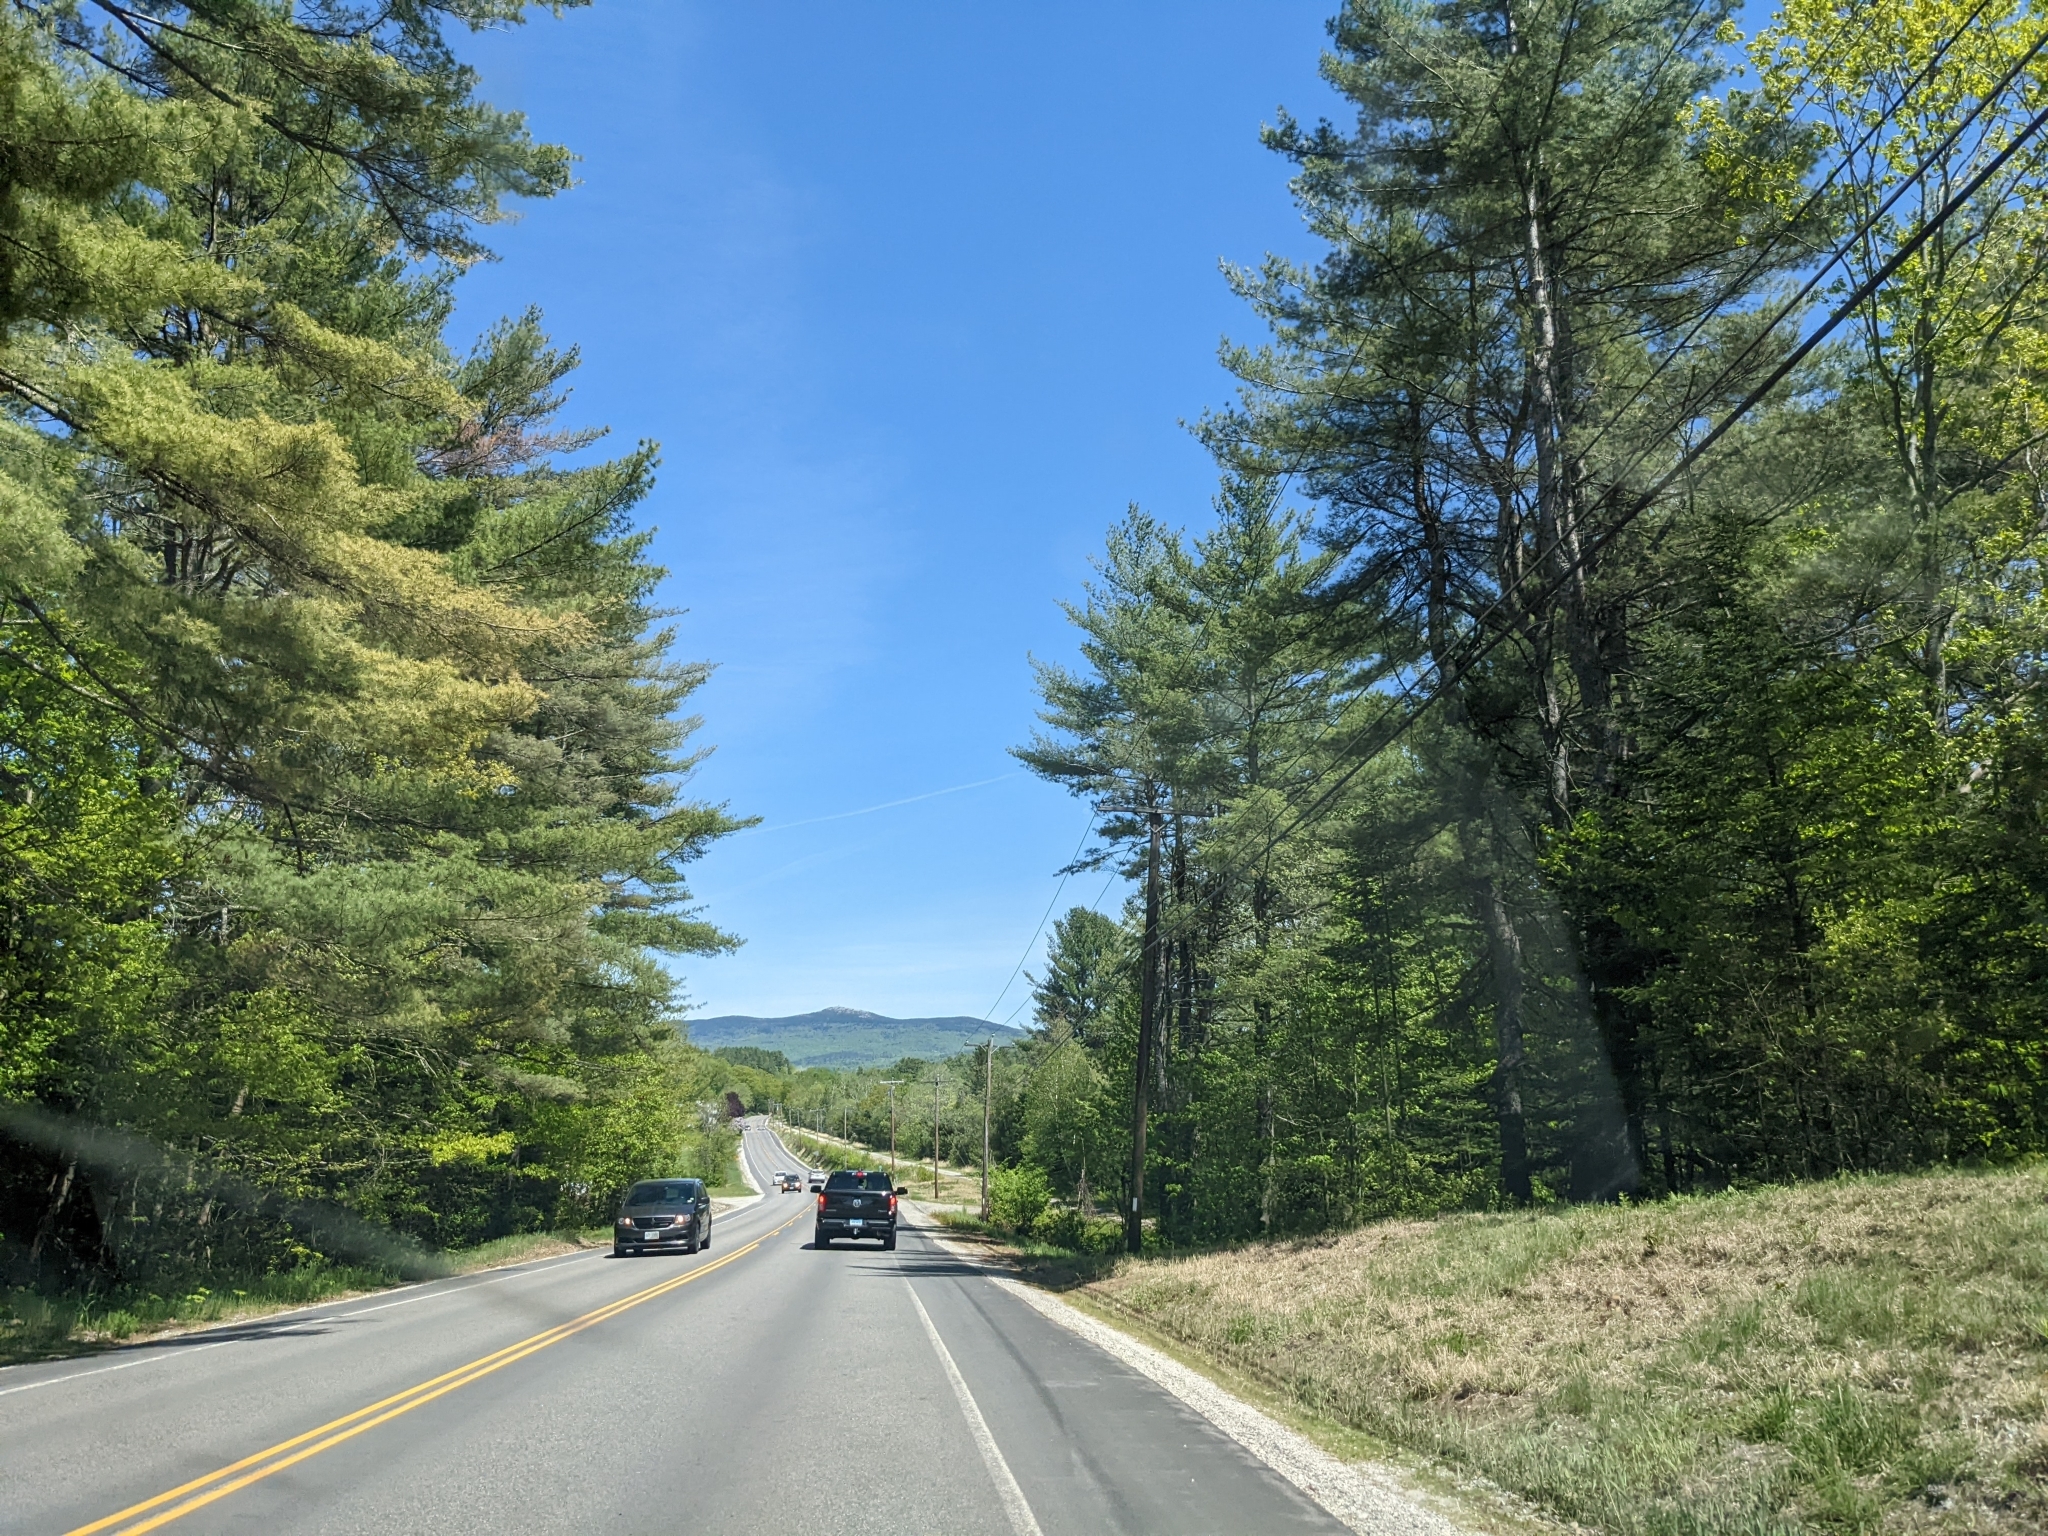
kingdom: Plantae
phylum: Tracheophyta
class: Pinopsida
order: Pinales
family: Pinaceae
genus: Pinus
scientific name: Pinus strobus
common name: Weymouth pine
